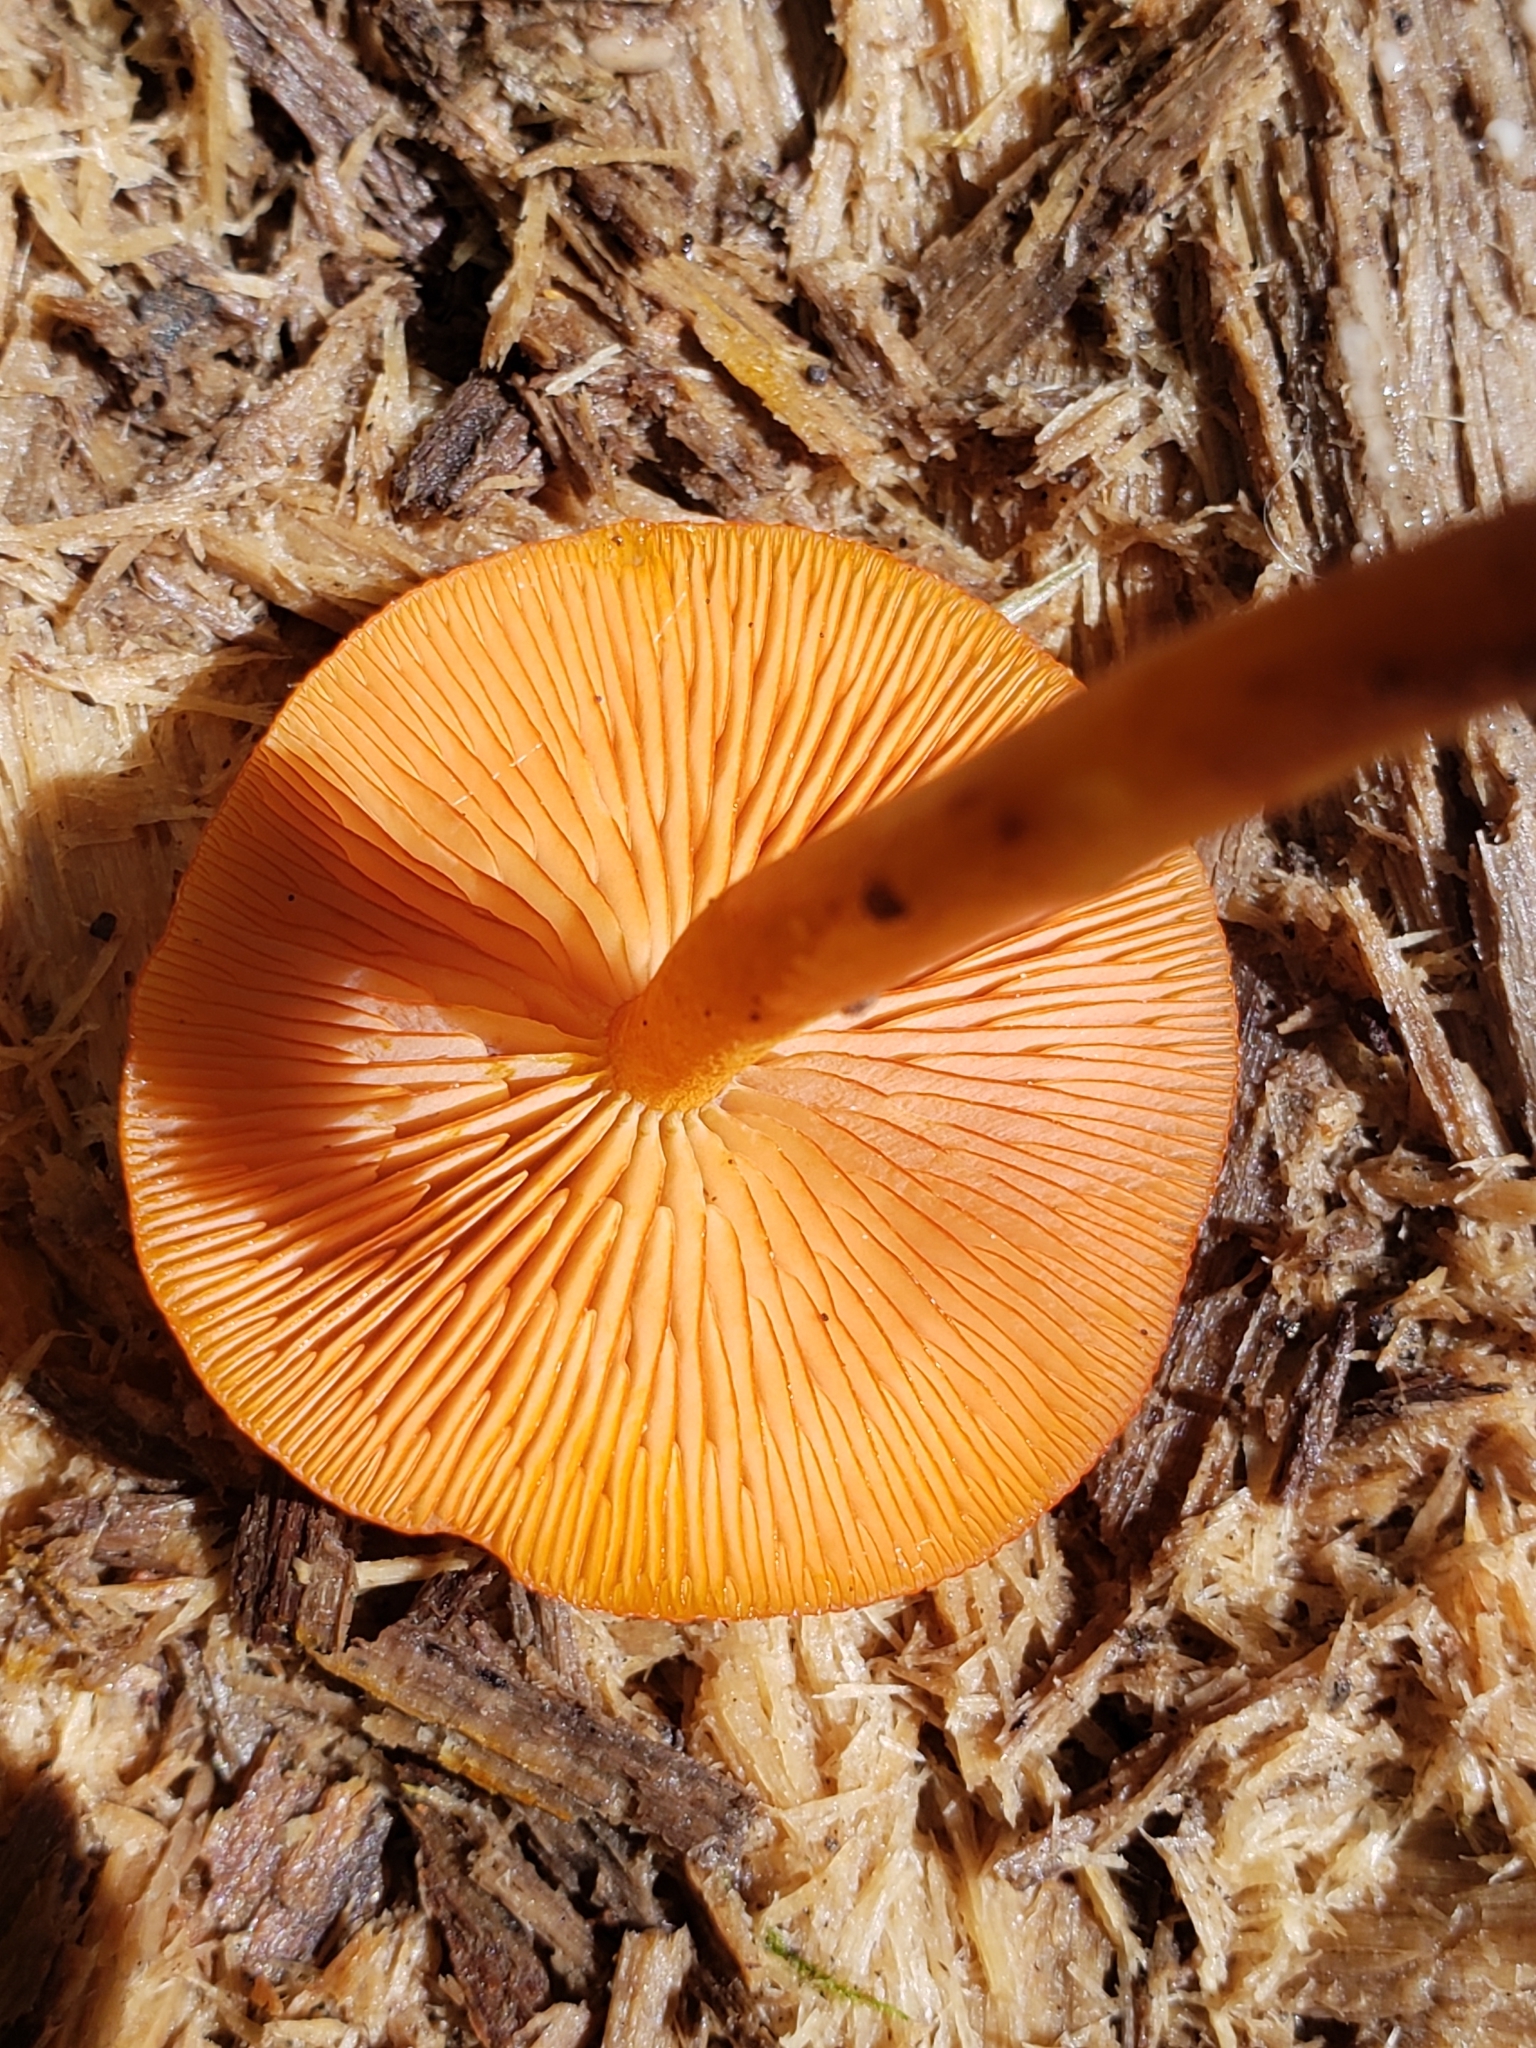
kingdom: Fungi
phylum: Basidiomycota
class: Agaricomycetes
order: Agaricales
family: Mycenaceae
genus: Mycena
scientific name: Mycena leaiana
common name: Orange mycena
